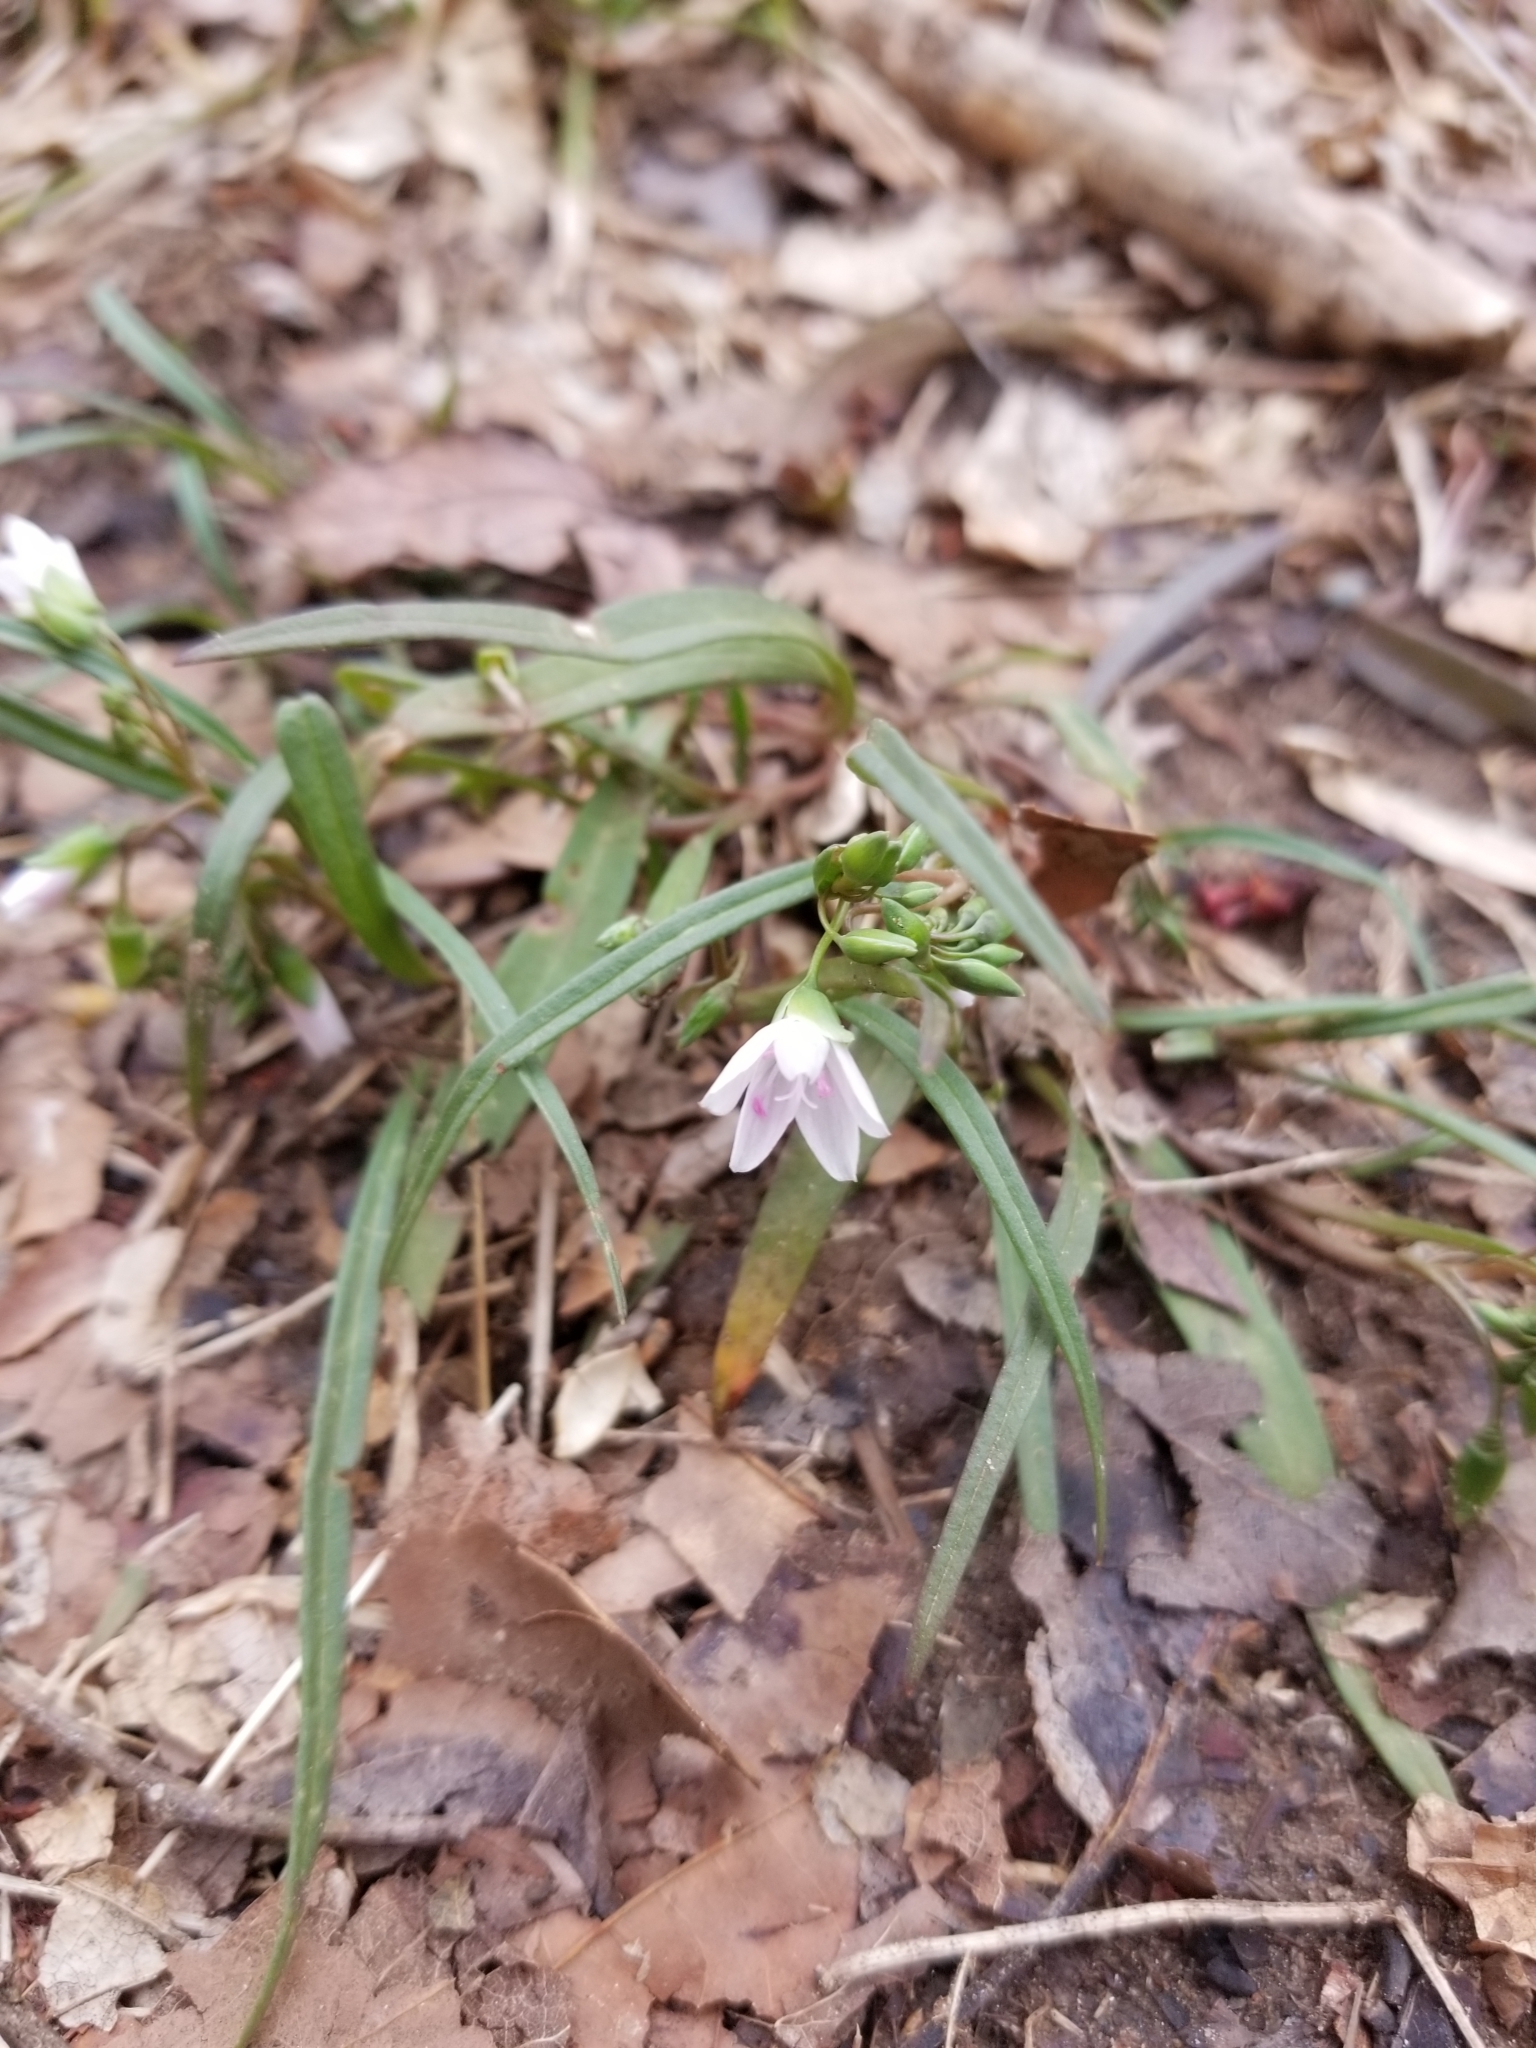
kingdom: Plantae
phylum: Tracheophyta
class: Magnoliopsida
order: Caryophyllales
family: Montiaceae
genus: Claytonia
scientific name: Claytonia virginica
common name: Virginia springbeauty
